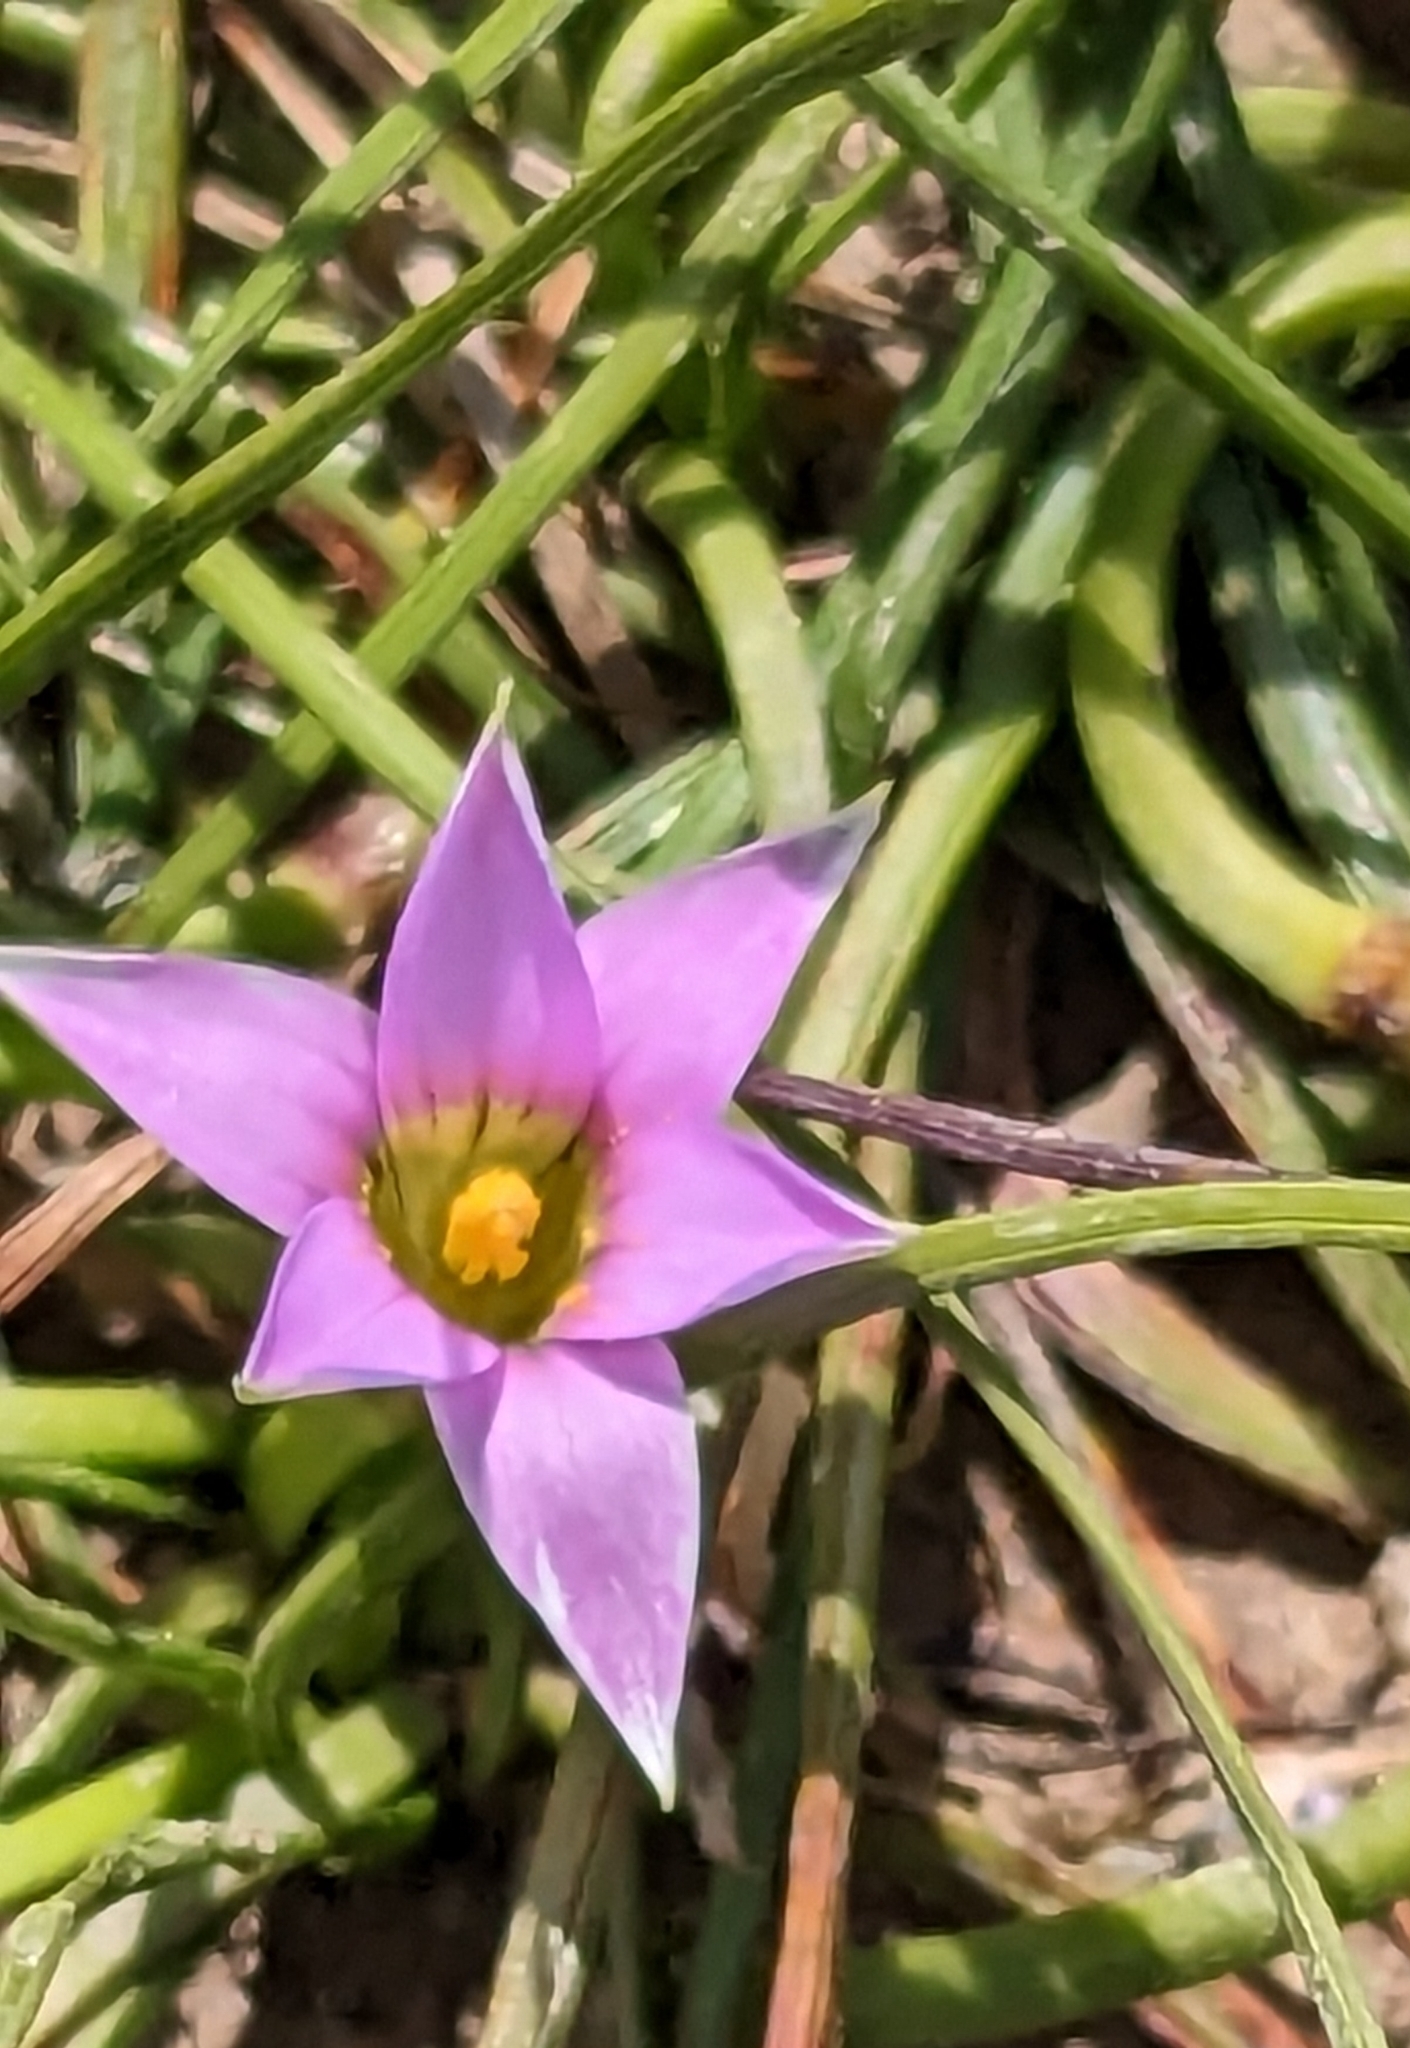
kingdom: Plantae
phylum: Tracheophyta
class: Liliopsida
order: Asparagales
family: Iridaceae
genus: Romulea
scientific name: Romulea rosea
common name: Oniongrass
